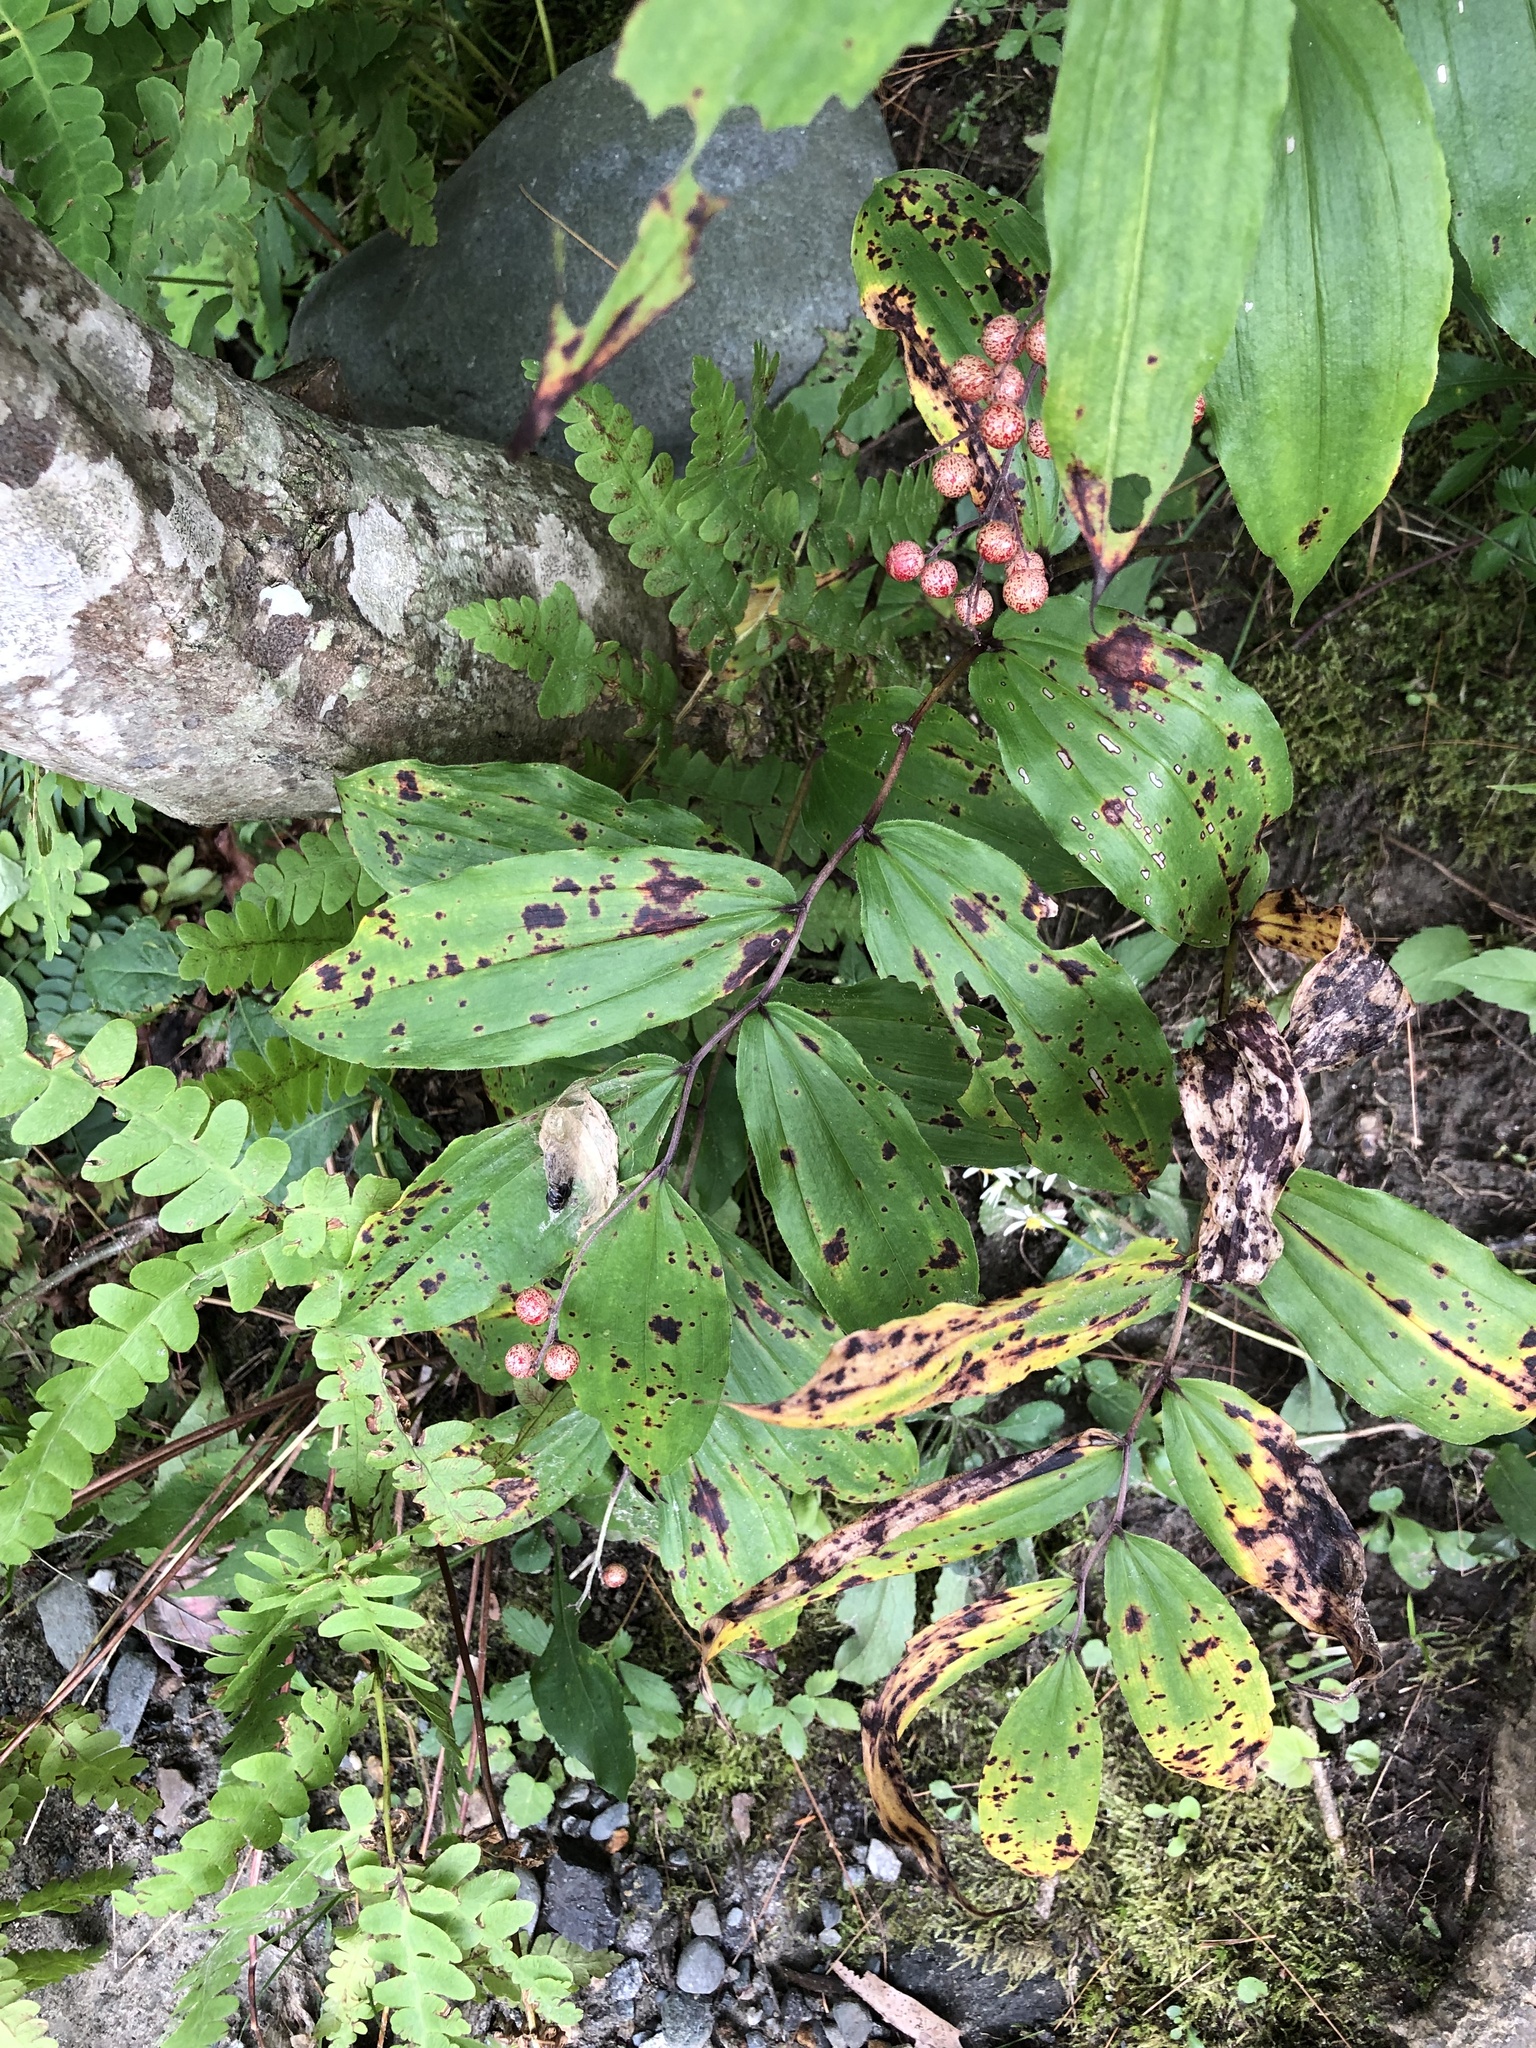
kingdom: Plantae
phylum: Tracheophyta
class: Liliopsida
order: Asparagales
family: Asparagaceae
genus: Maianthemum
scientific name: Maianthemum racemosum
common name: False spikenard
